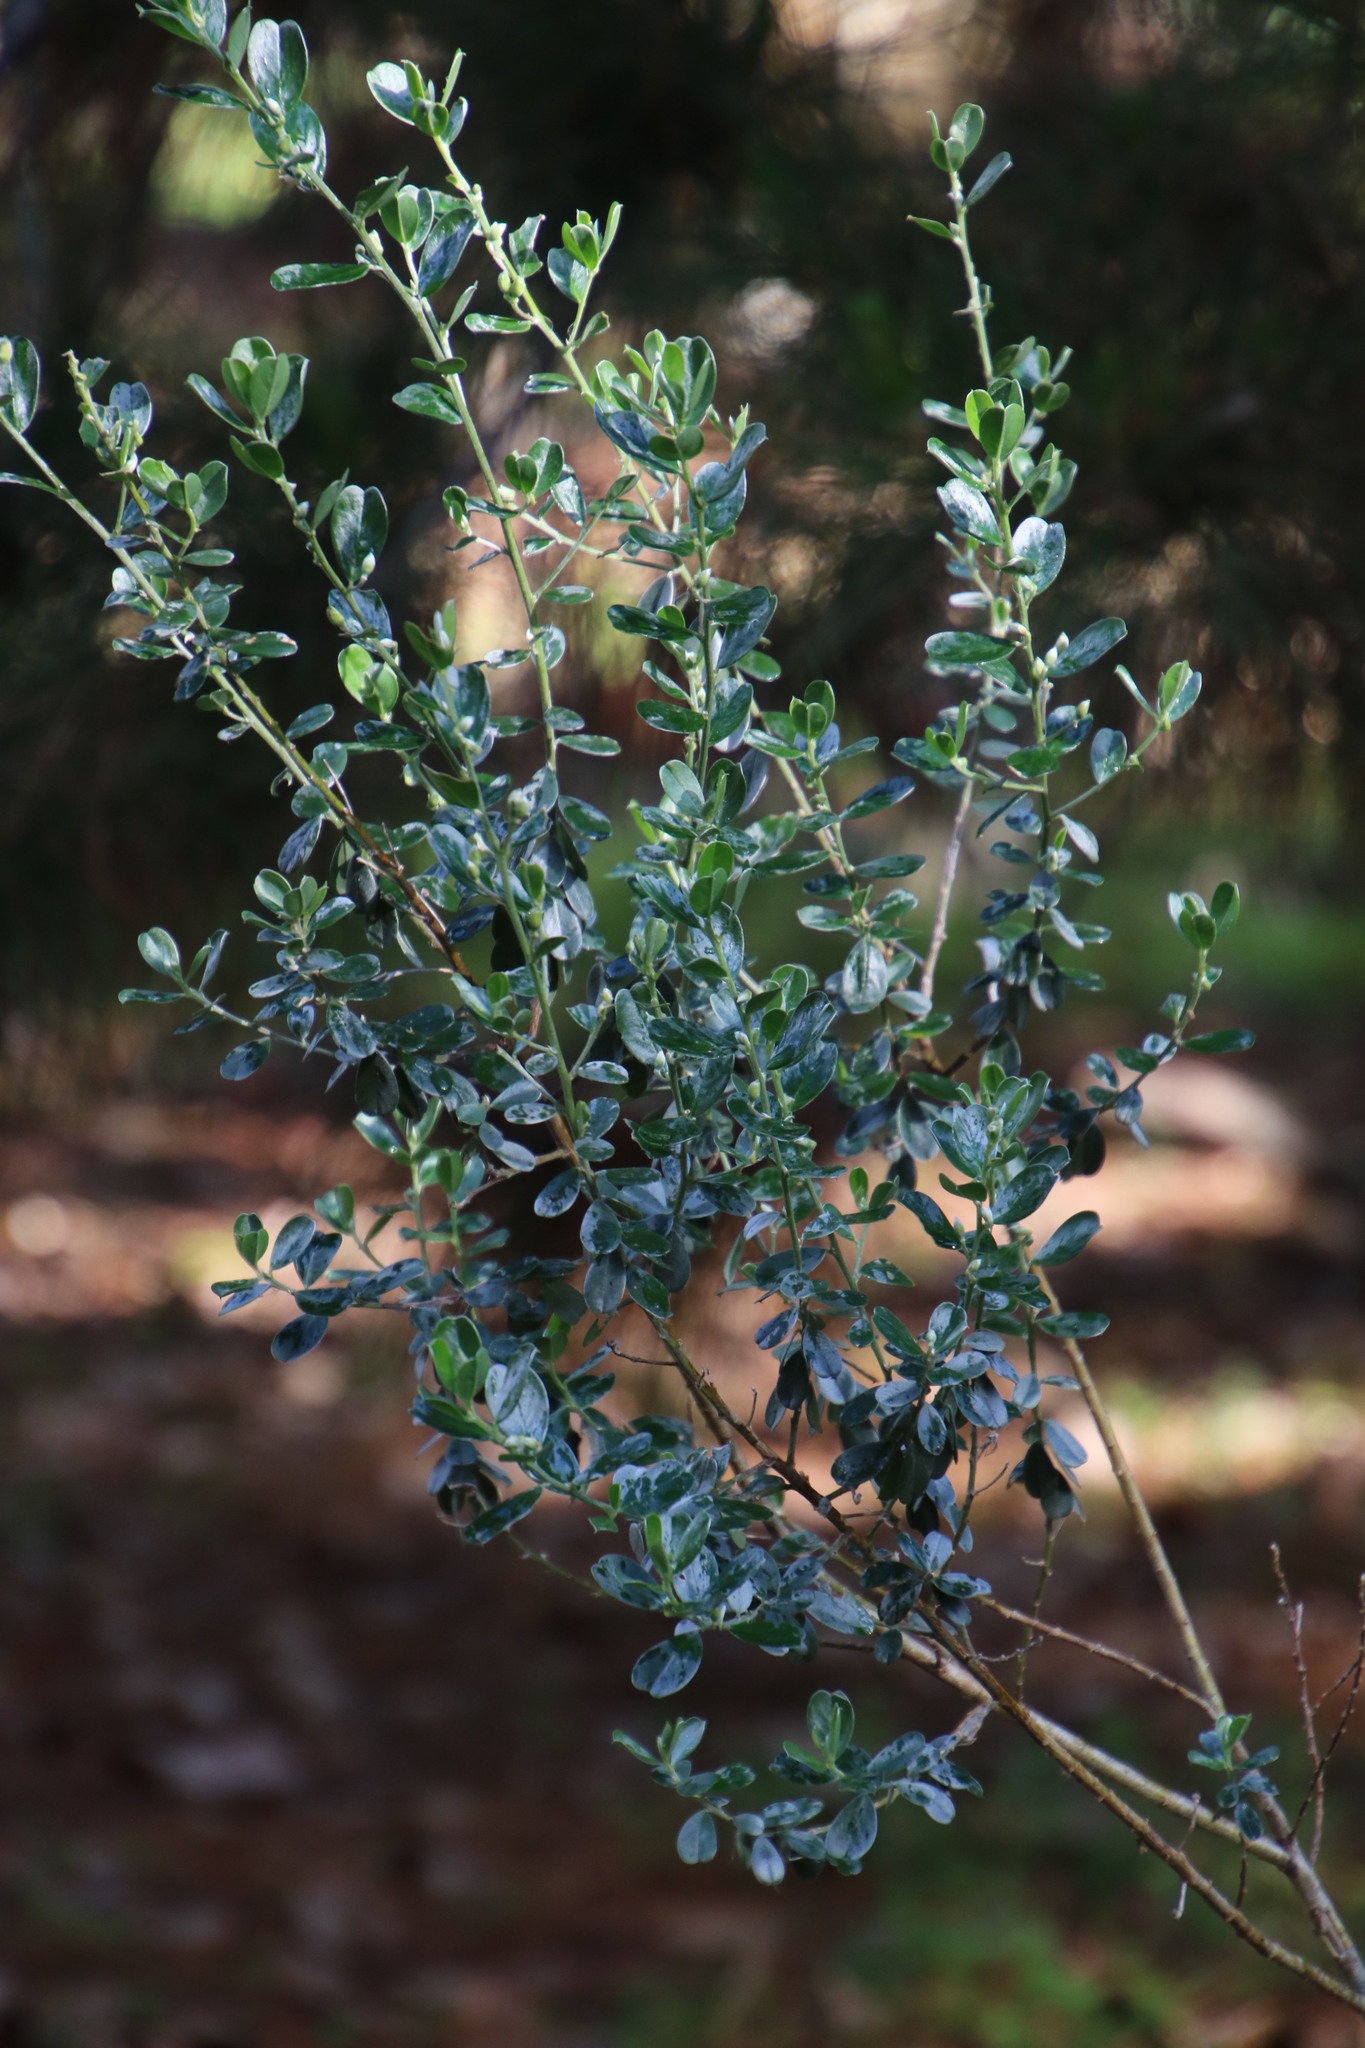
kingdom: Plantae
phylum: Tracheophyta
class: Magnoliopsida
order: Fabales
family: Fabaceae
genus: Podalyria
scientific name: Podalyria myrtillifolia
